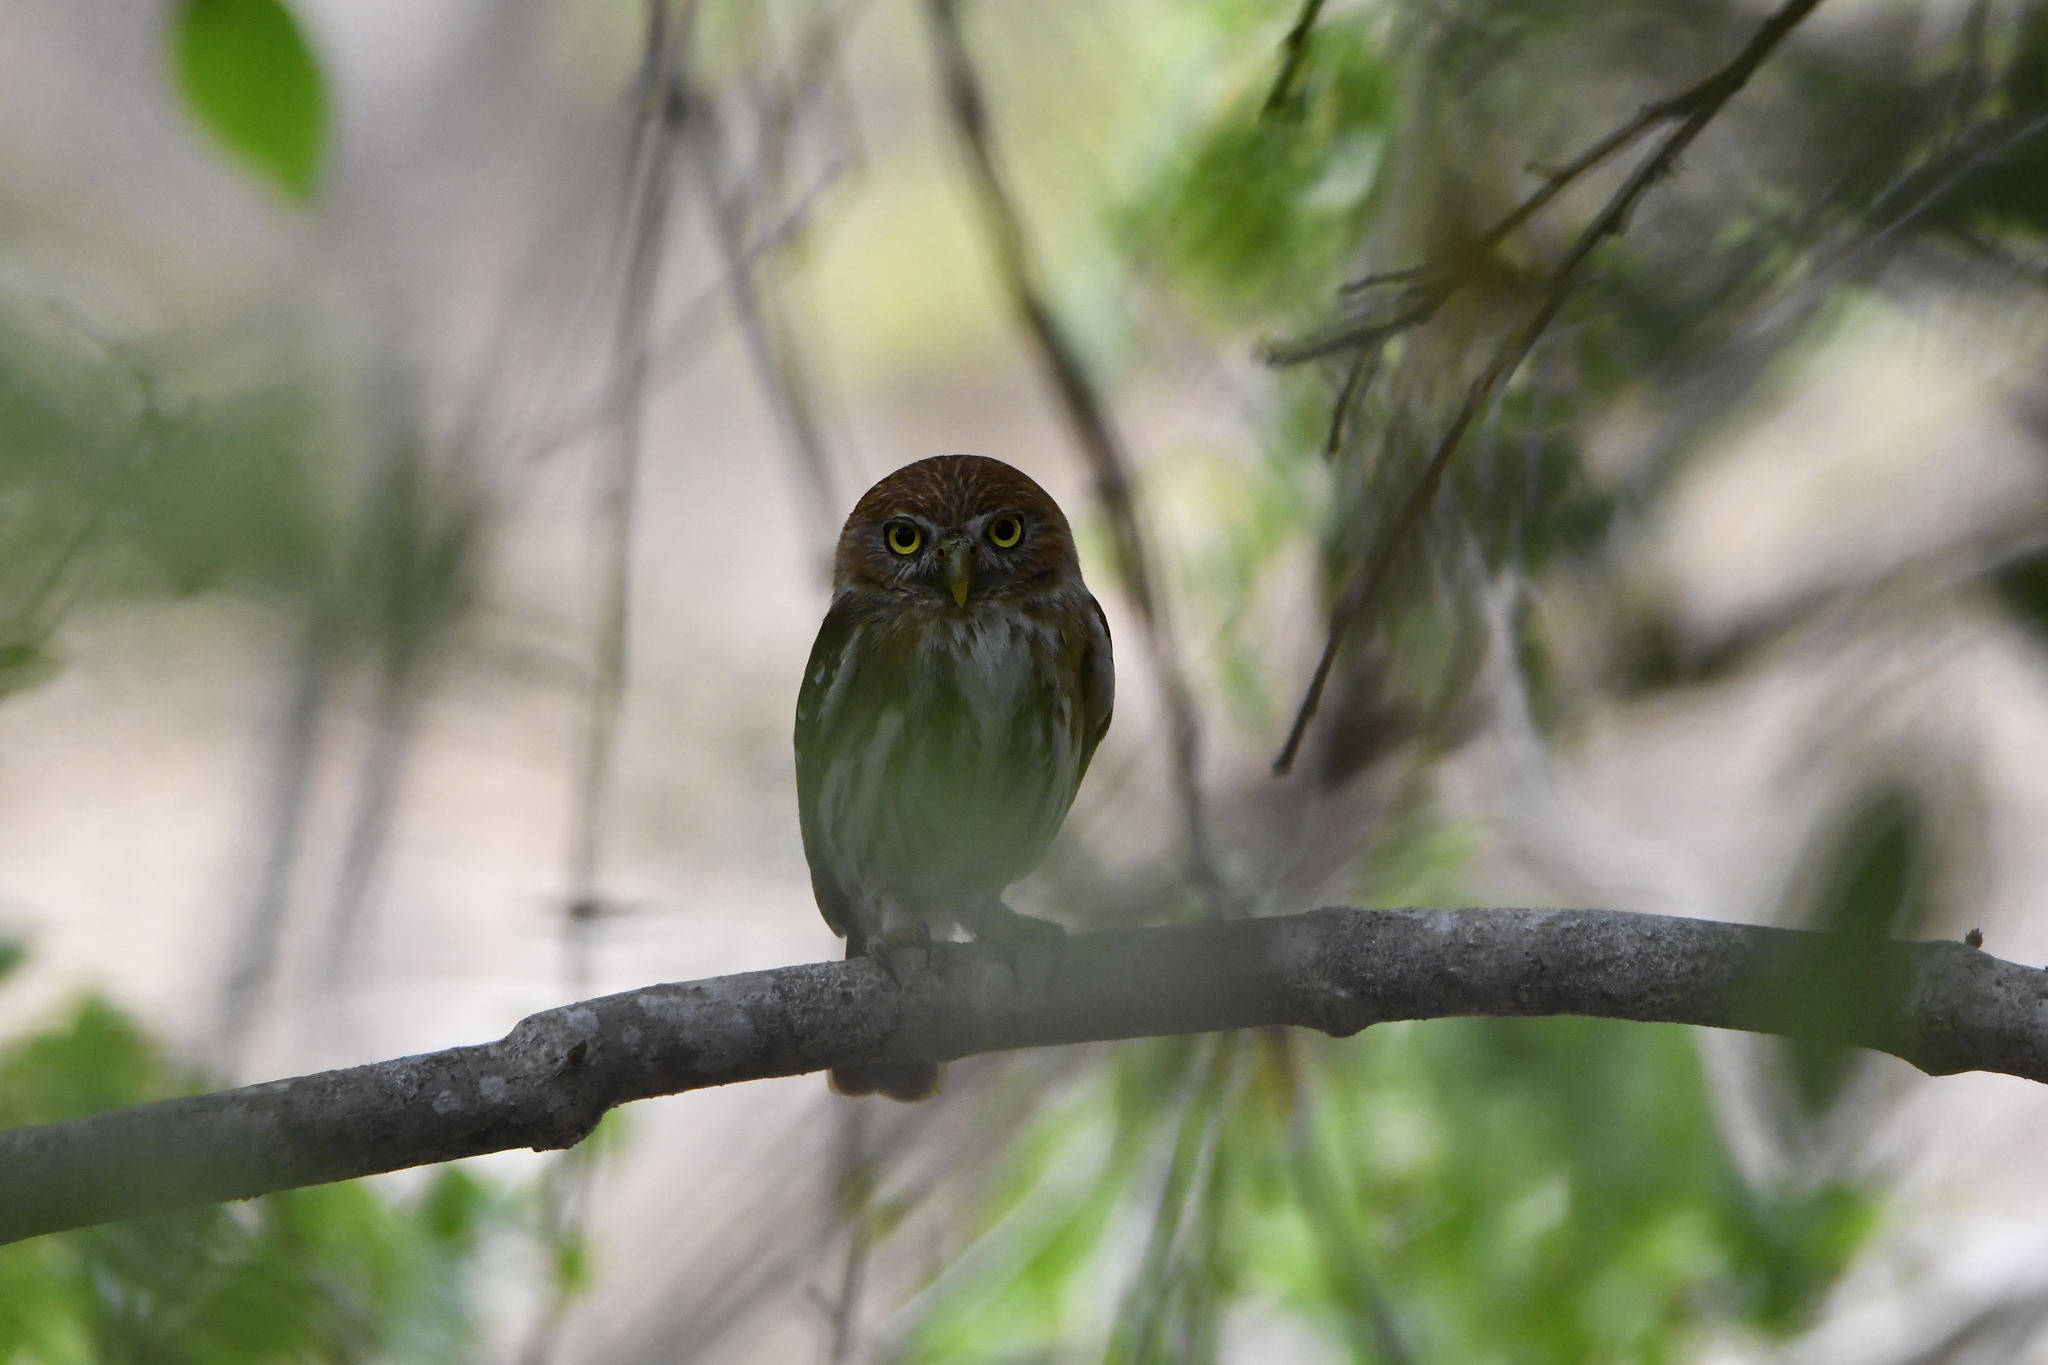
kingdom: Animalia
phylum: Chordata
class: Aves
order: Strigiformes
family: Strigidae
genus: Glaucidium
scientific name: Glaucidium brasilianum
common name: Ferruginous pygmy-owl
